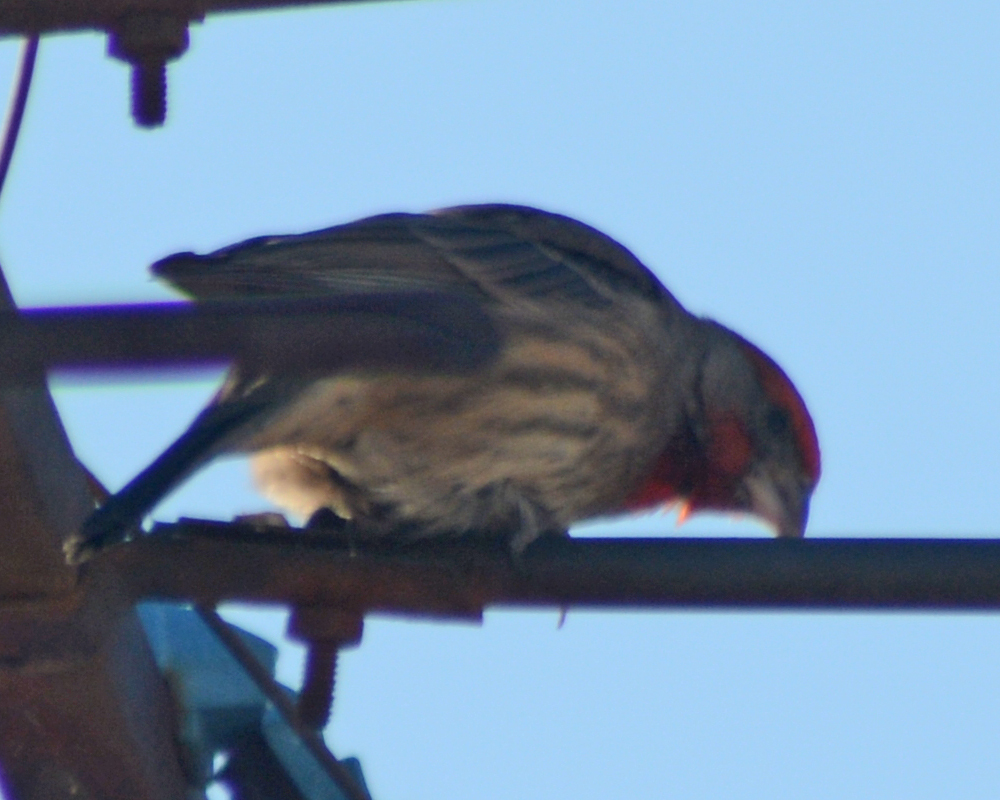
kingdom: Animalia
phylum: Chordata
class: Aves
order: Passeriformes
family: Fringillidae
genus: Haemorhous
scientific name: Haemorhous mexicanus
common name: House finch
